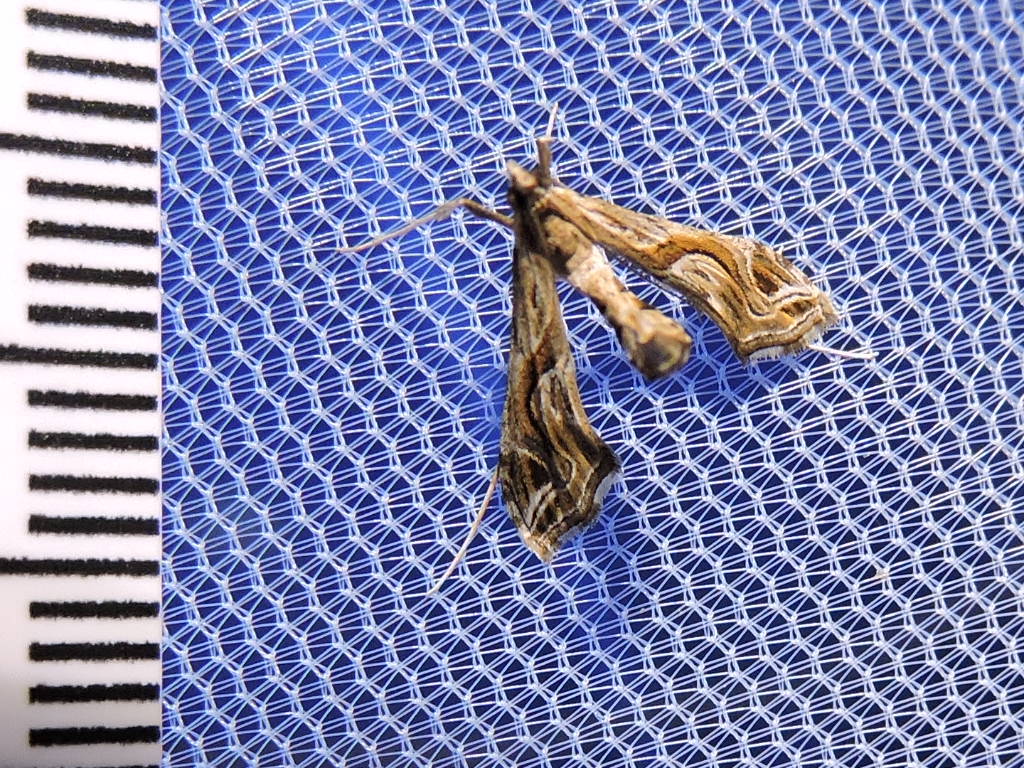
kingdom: Animalia
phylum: Arthropoda
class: Insecta
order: Lepidoptera
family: Crambidae
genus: Lineodes
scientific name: Lineodes integra
